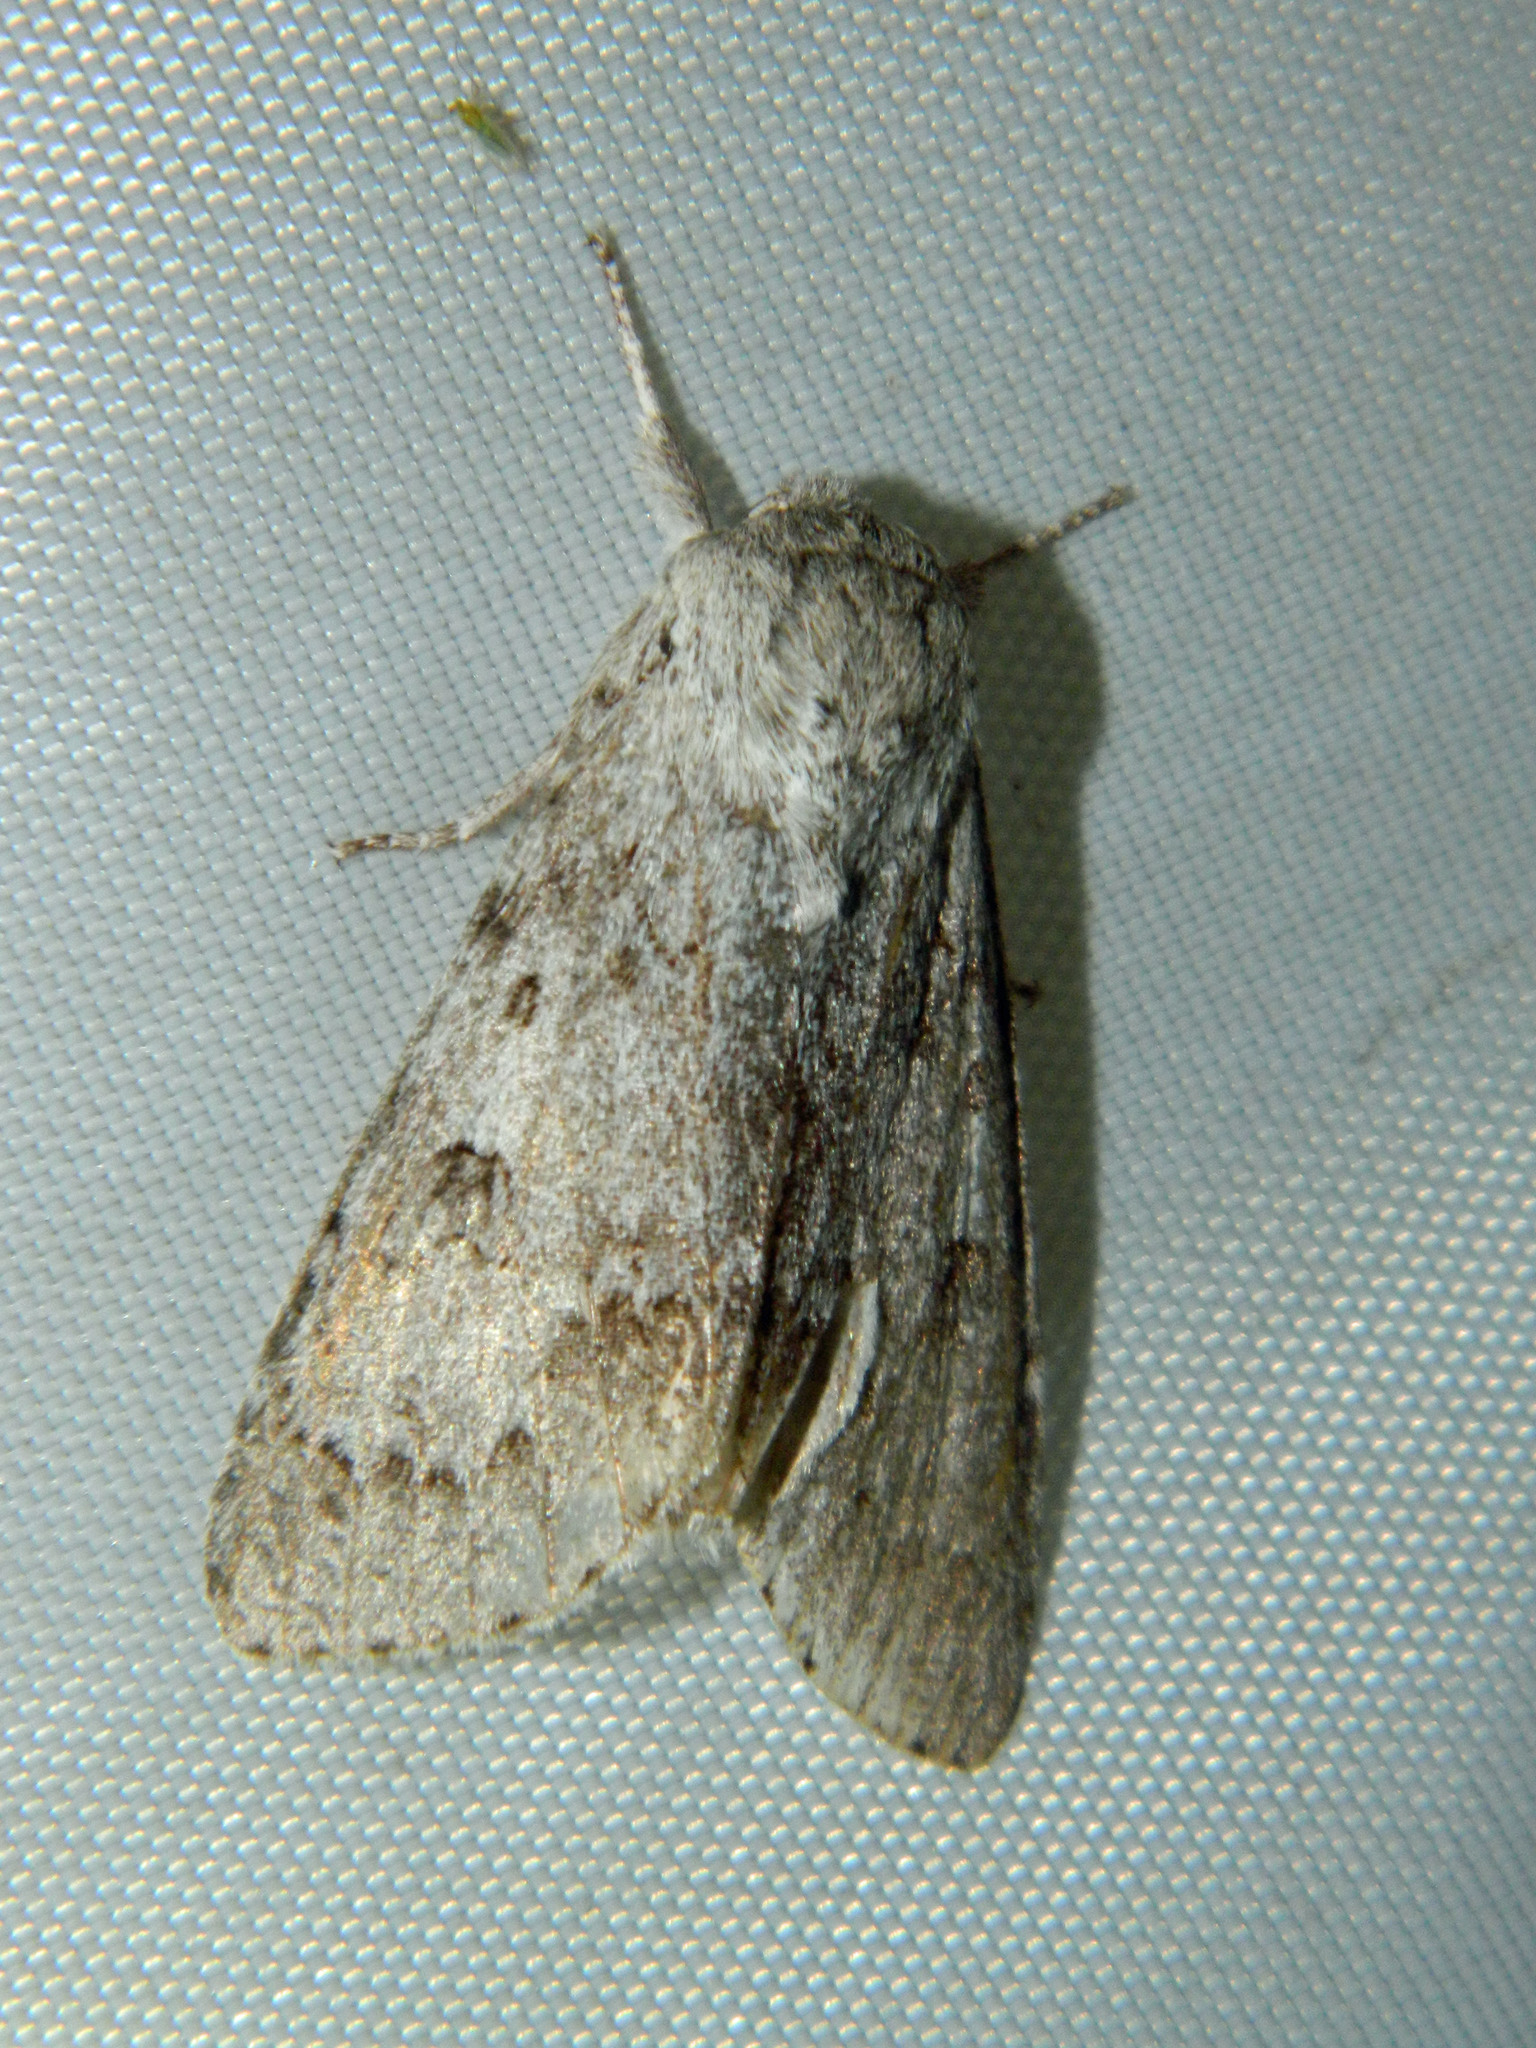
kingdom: Animalia
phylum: Arthropoda
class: Insecta
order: Lepidoptera
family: Noctuidae
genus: Acronicta
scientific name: Acronicta insita
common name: Large gray dagger
